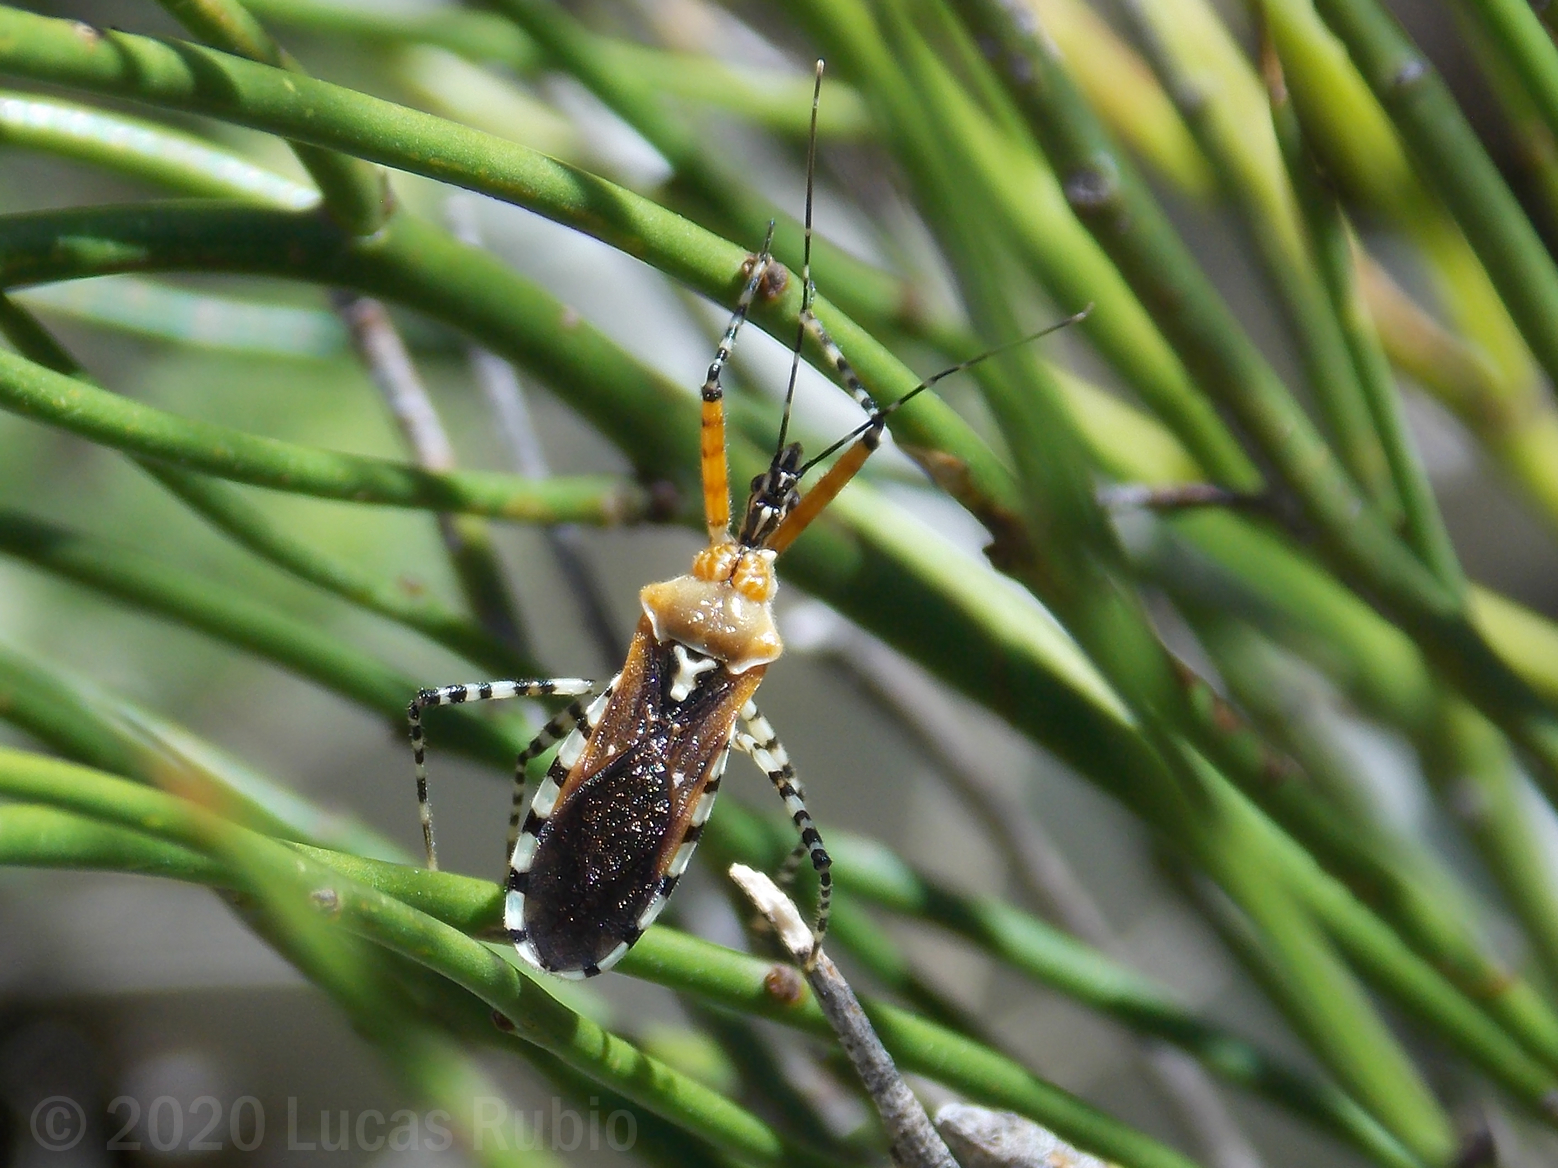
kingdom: Animalia
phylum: Arthropoda
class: Insecta
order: Hemiptera
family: Reduviidae
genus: Cosmoclopius
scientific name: Cosmoclopius nigroannulatus
